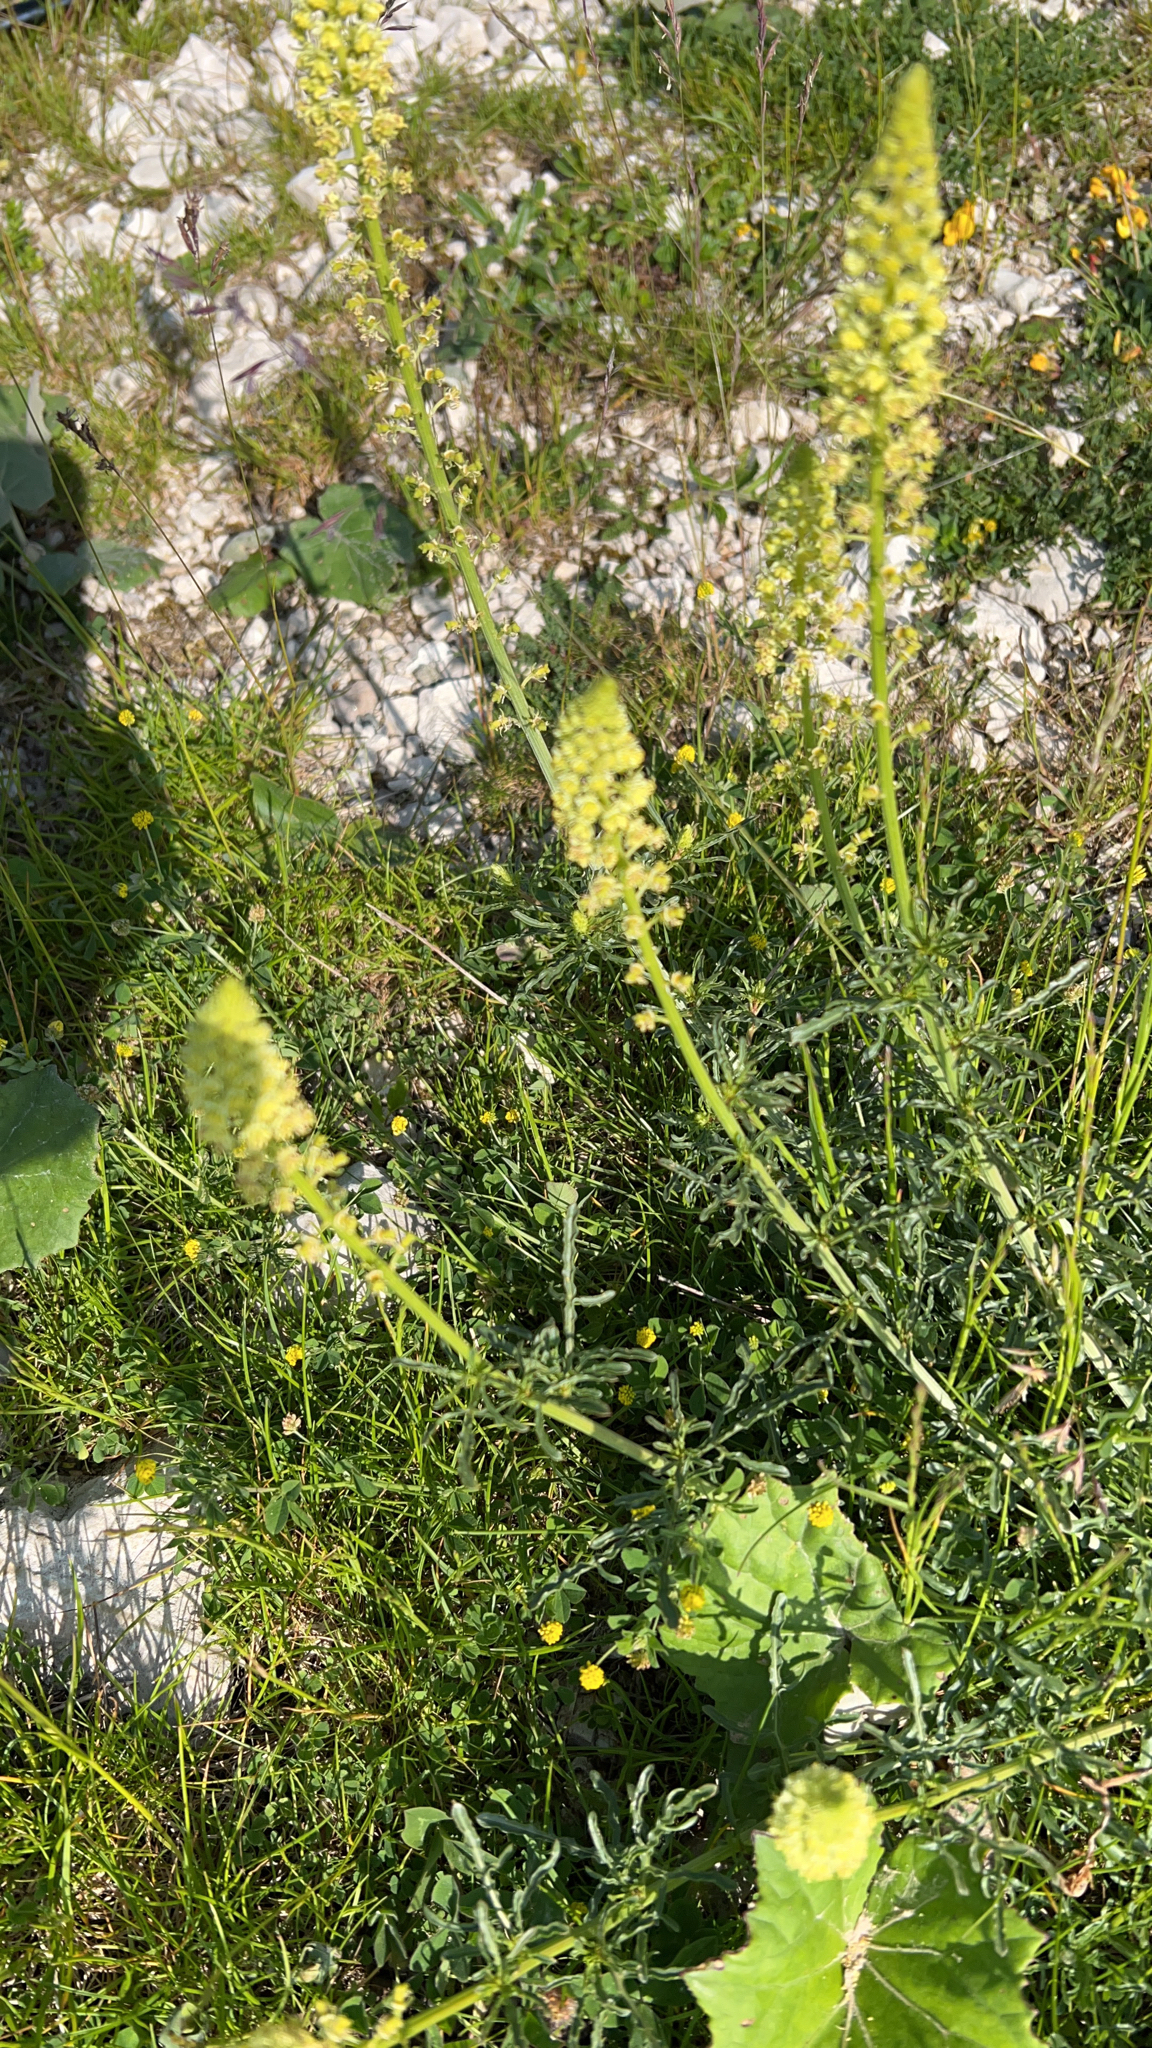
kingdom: Plantae
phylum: Tracheophyta
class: Magnoliopsida
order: Brassicales
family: Resedaceae
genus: Reseda
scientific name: Reseda lutea
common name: Wild mignonette
